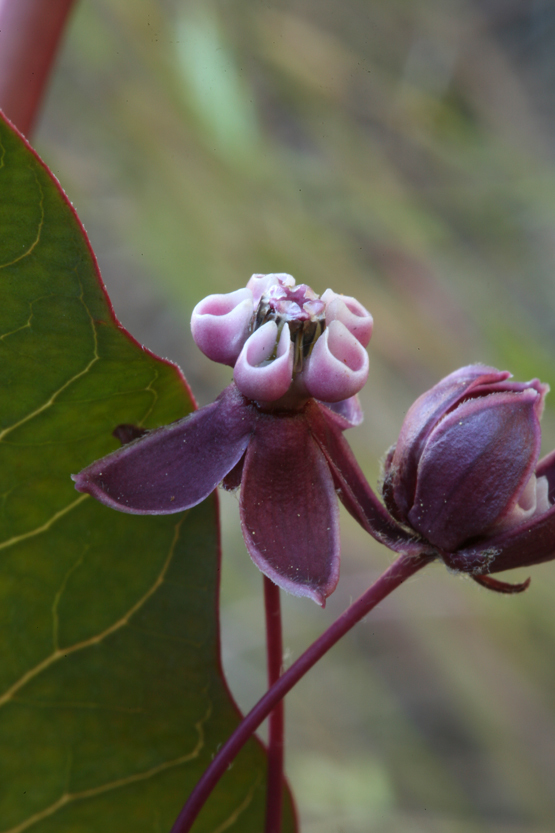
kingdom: Plantae
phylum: Tracheophyta
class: Magnoliopsida
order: Gentianales
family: Apocynaceae
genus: Asclepias
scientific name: Asclepias cordifolia
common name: Purple milkweed
